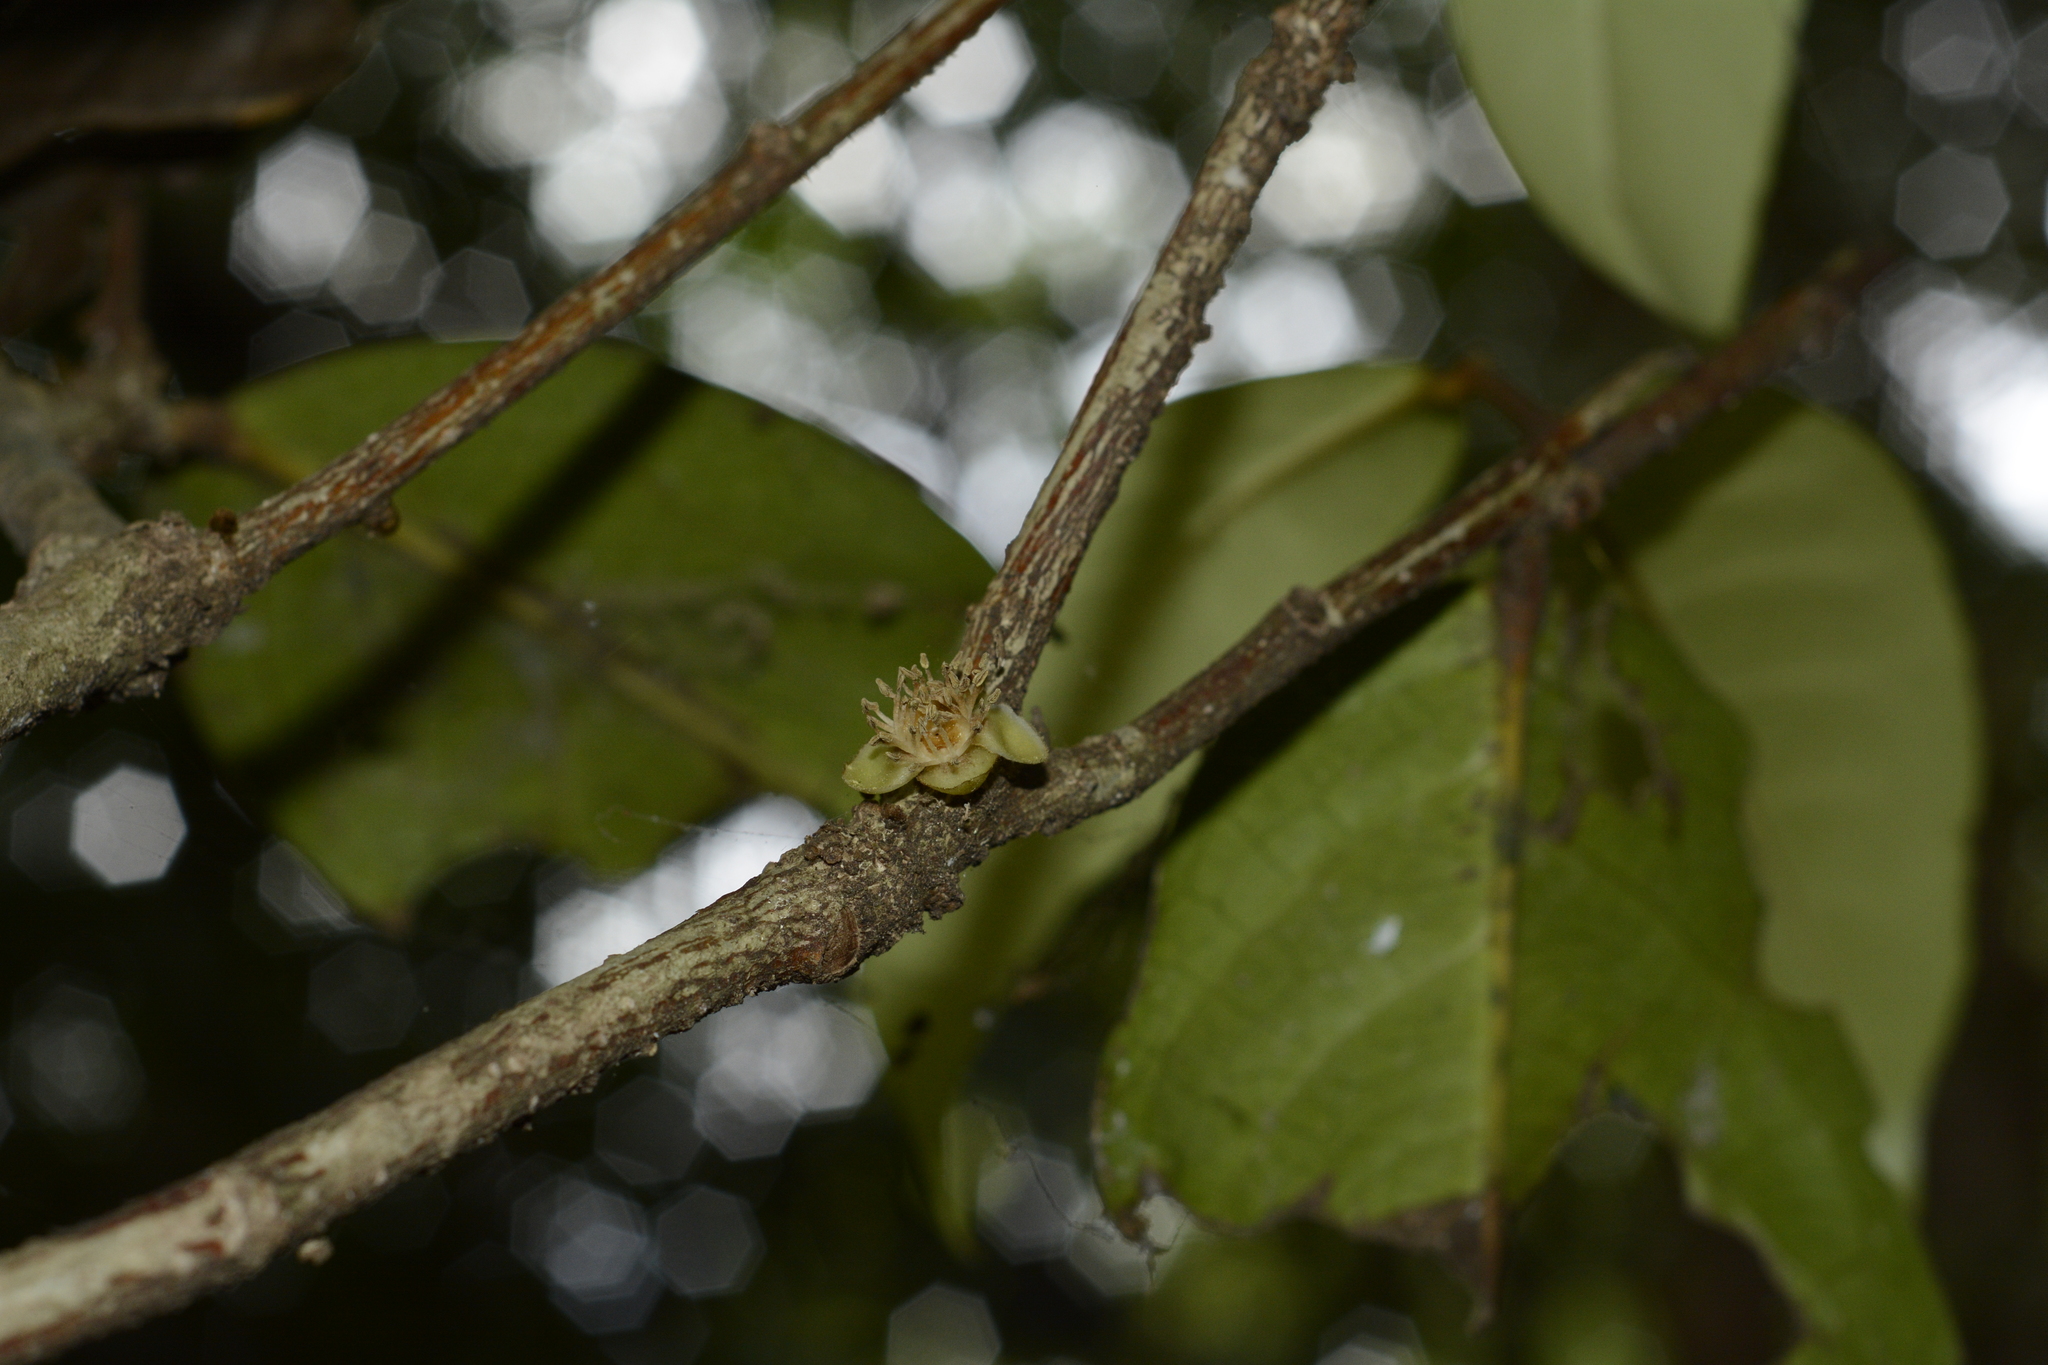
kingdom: Plantae
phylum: Tracheophyta
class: Magnoliopsida
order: Malpighiales
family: Putranjivaceae
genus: Drypetes
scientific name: Drypetes oblongifolia
